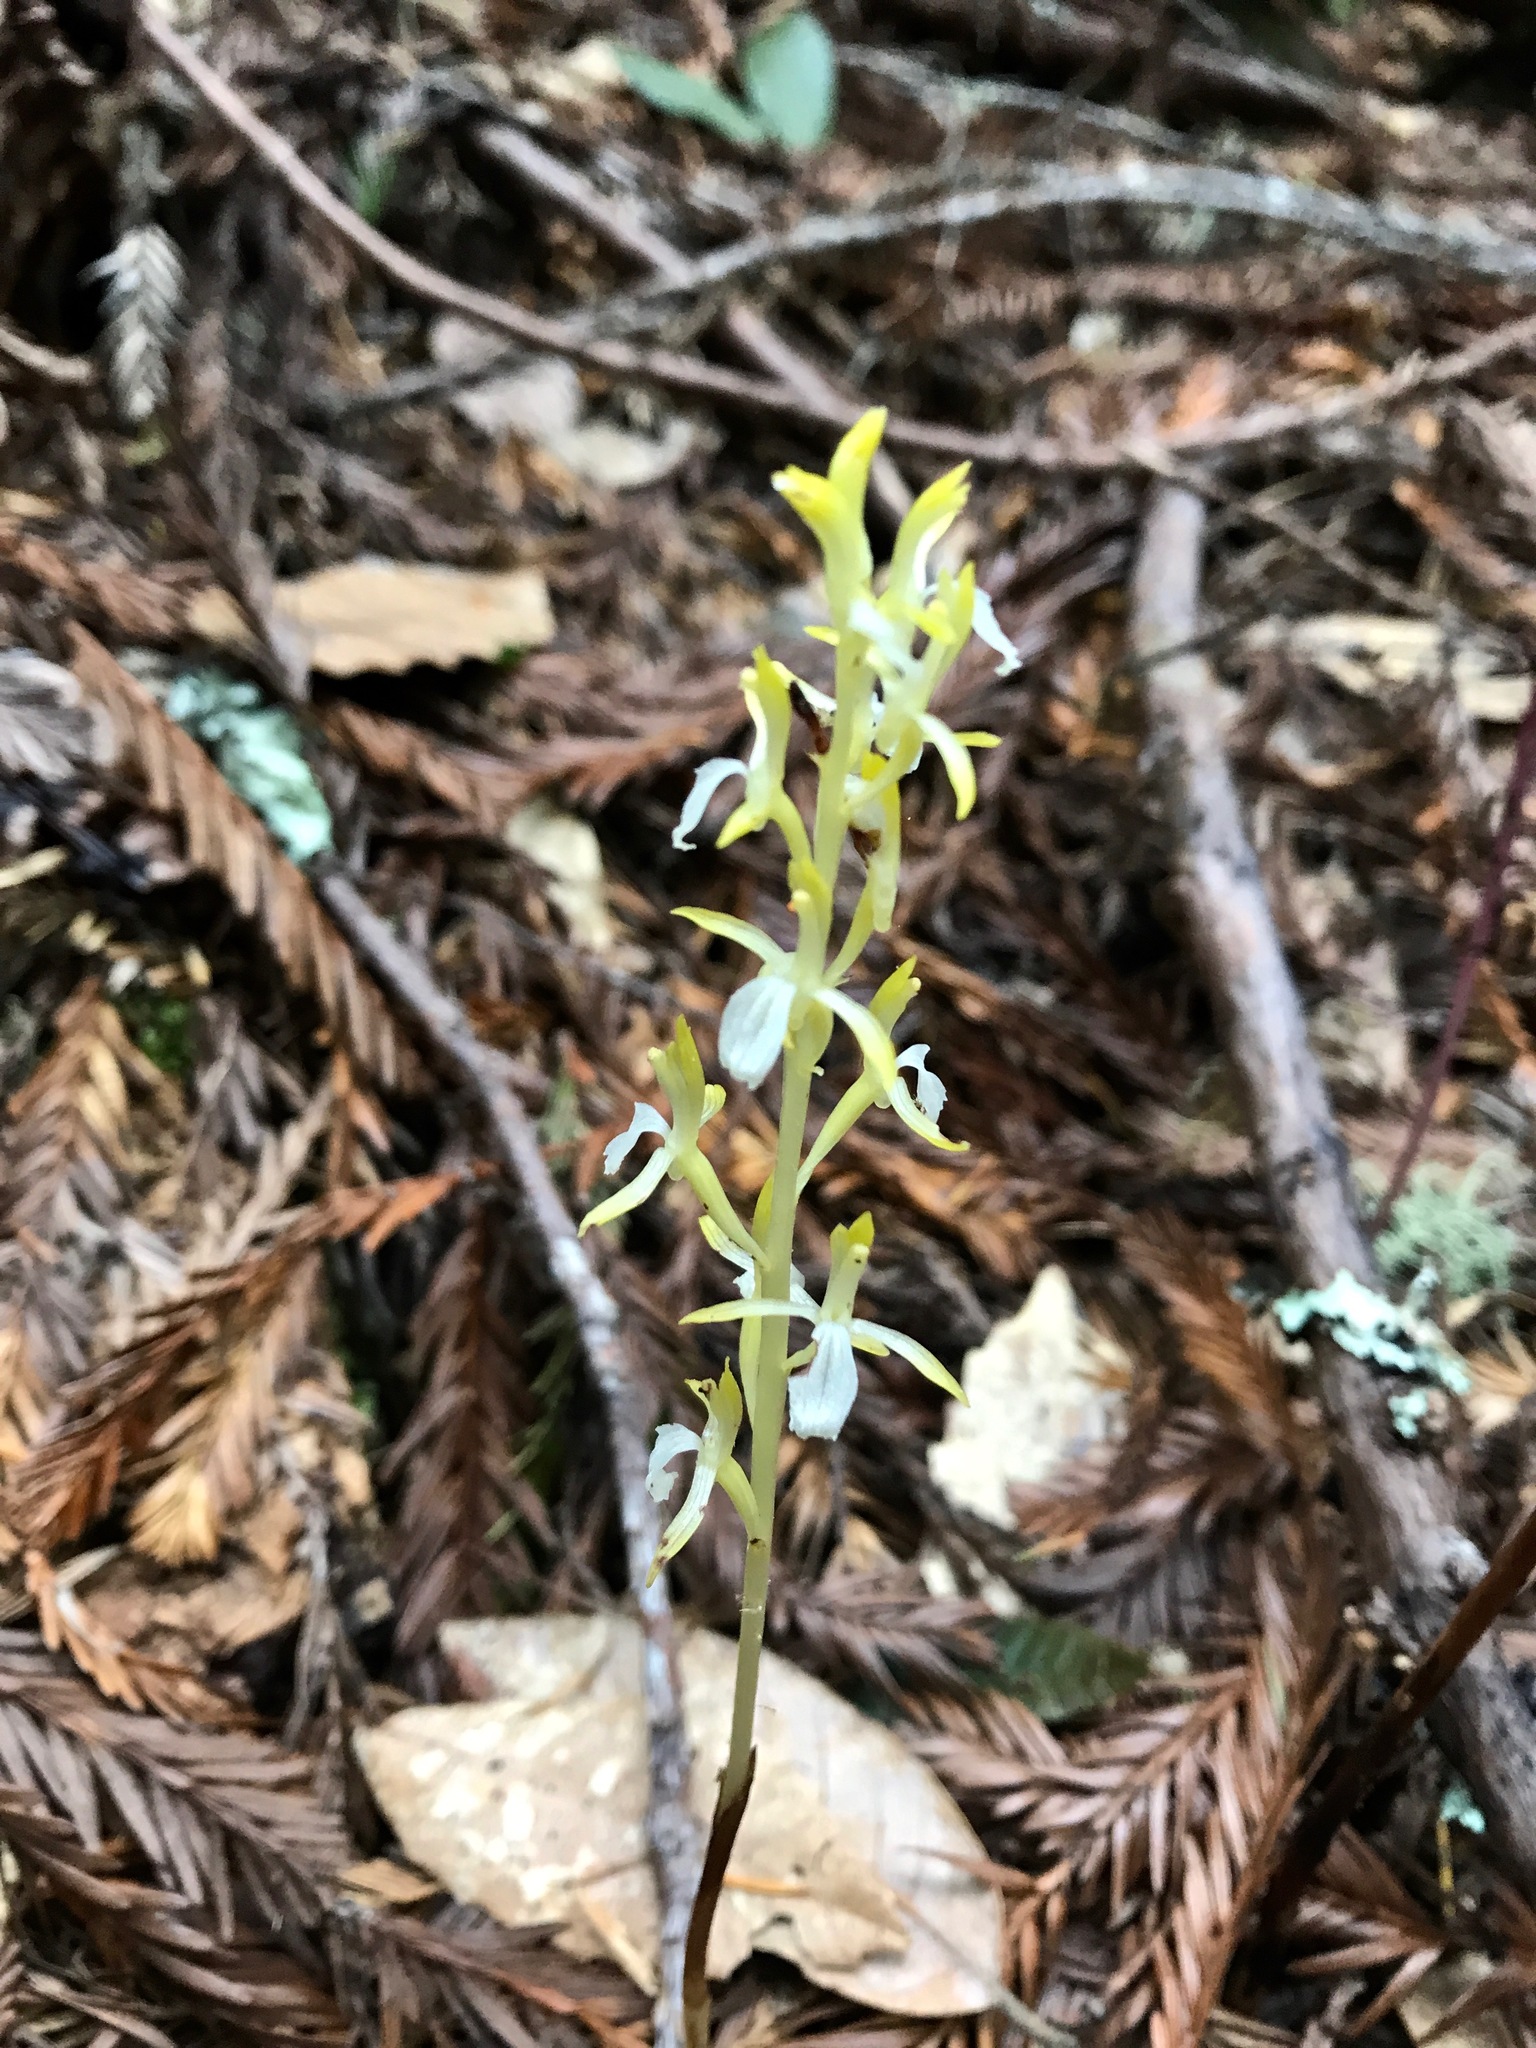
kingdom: Plantae
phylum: Tracheophyta
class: Liliopsida
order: Asparagales
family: Orchidaceae
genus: Corallorhiza
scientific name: Corallorhiza mertensiana
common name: Pacific coralroot
